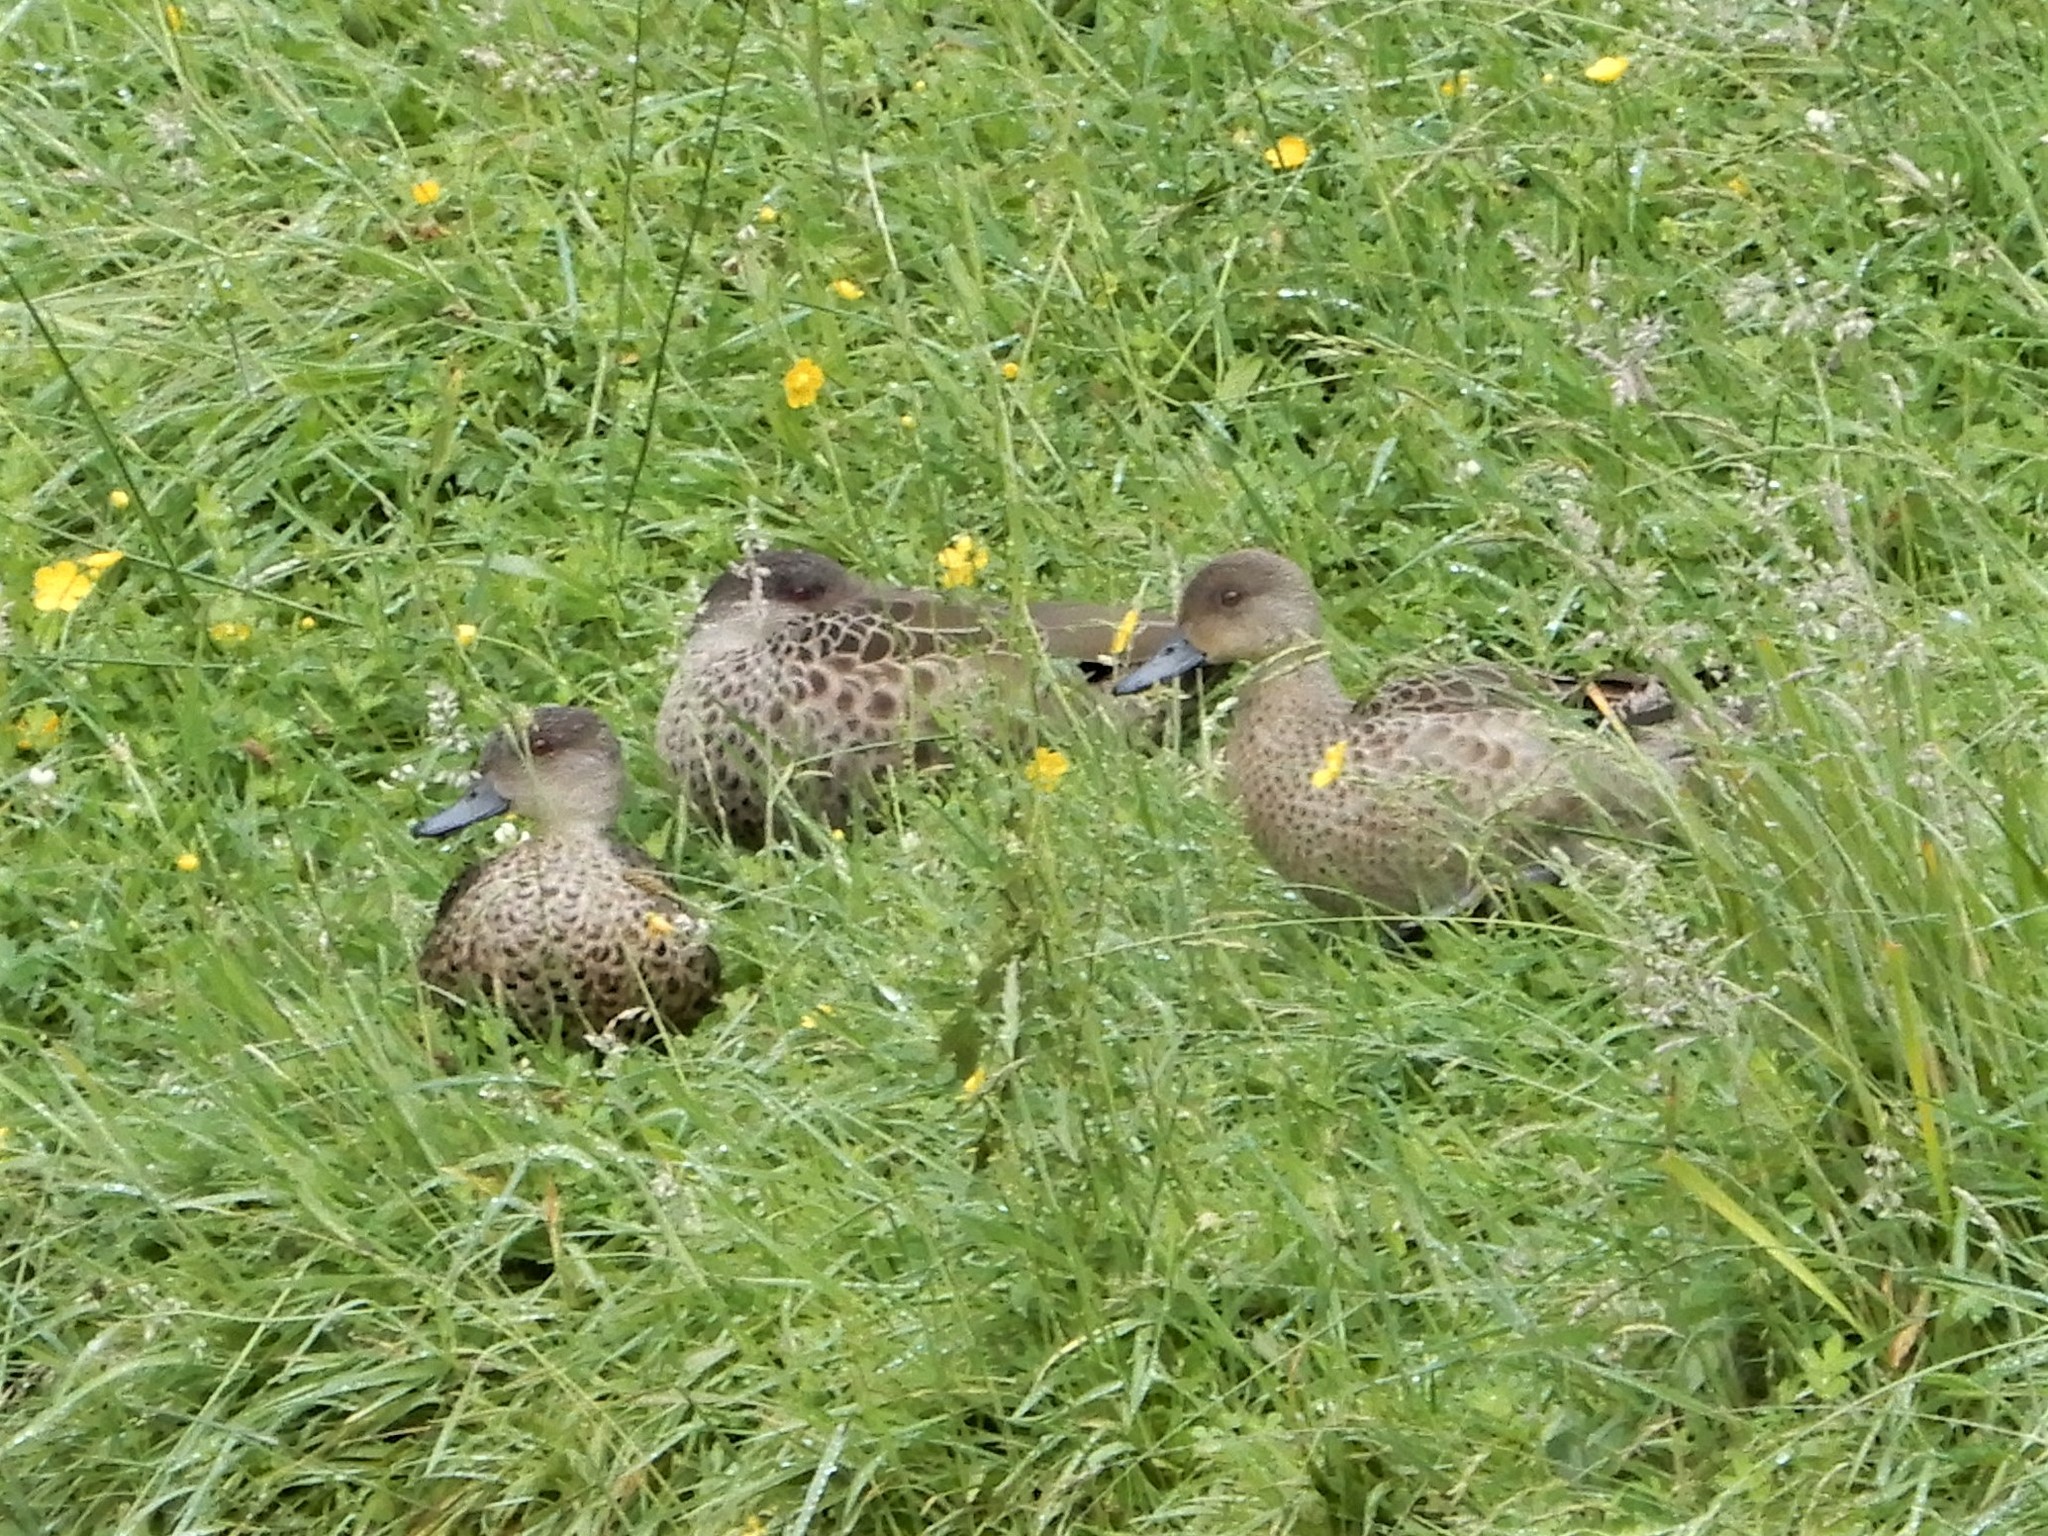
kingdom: Animalia
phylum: Chordata
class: Aves
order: Anseriformes
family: Anatidae
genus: Anas
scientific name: Anas gracilis
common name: Grey teal
